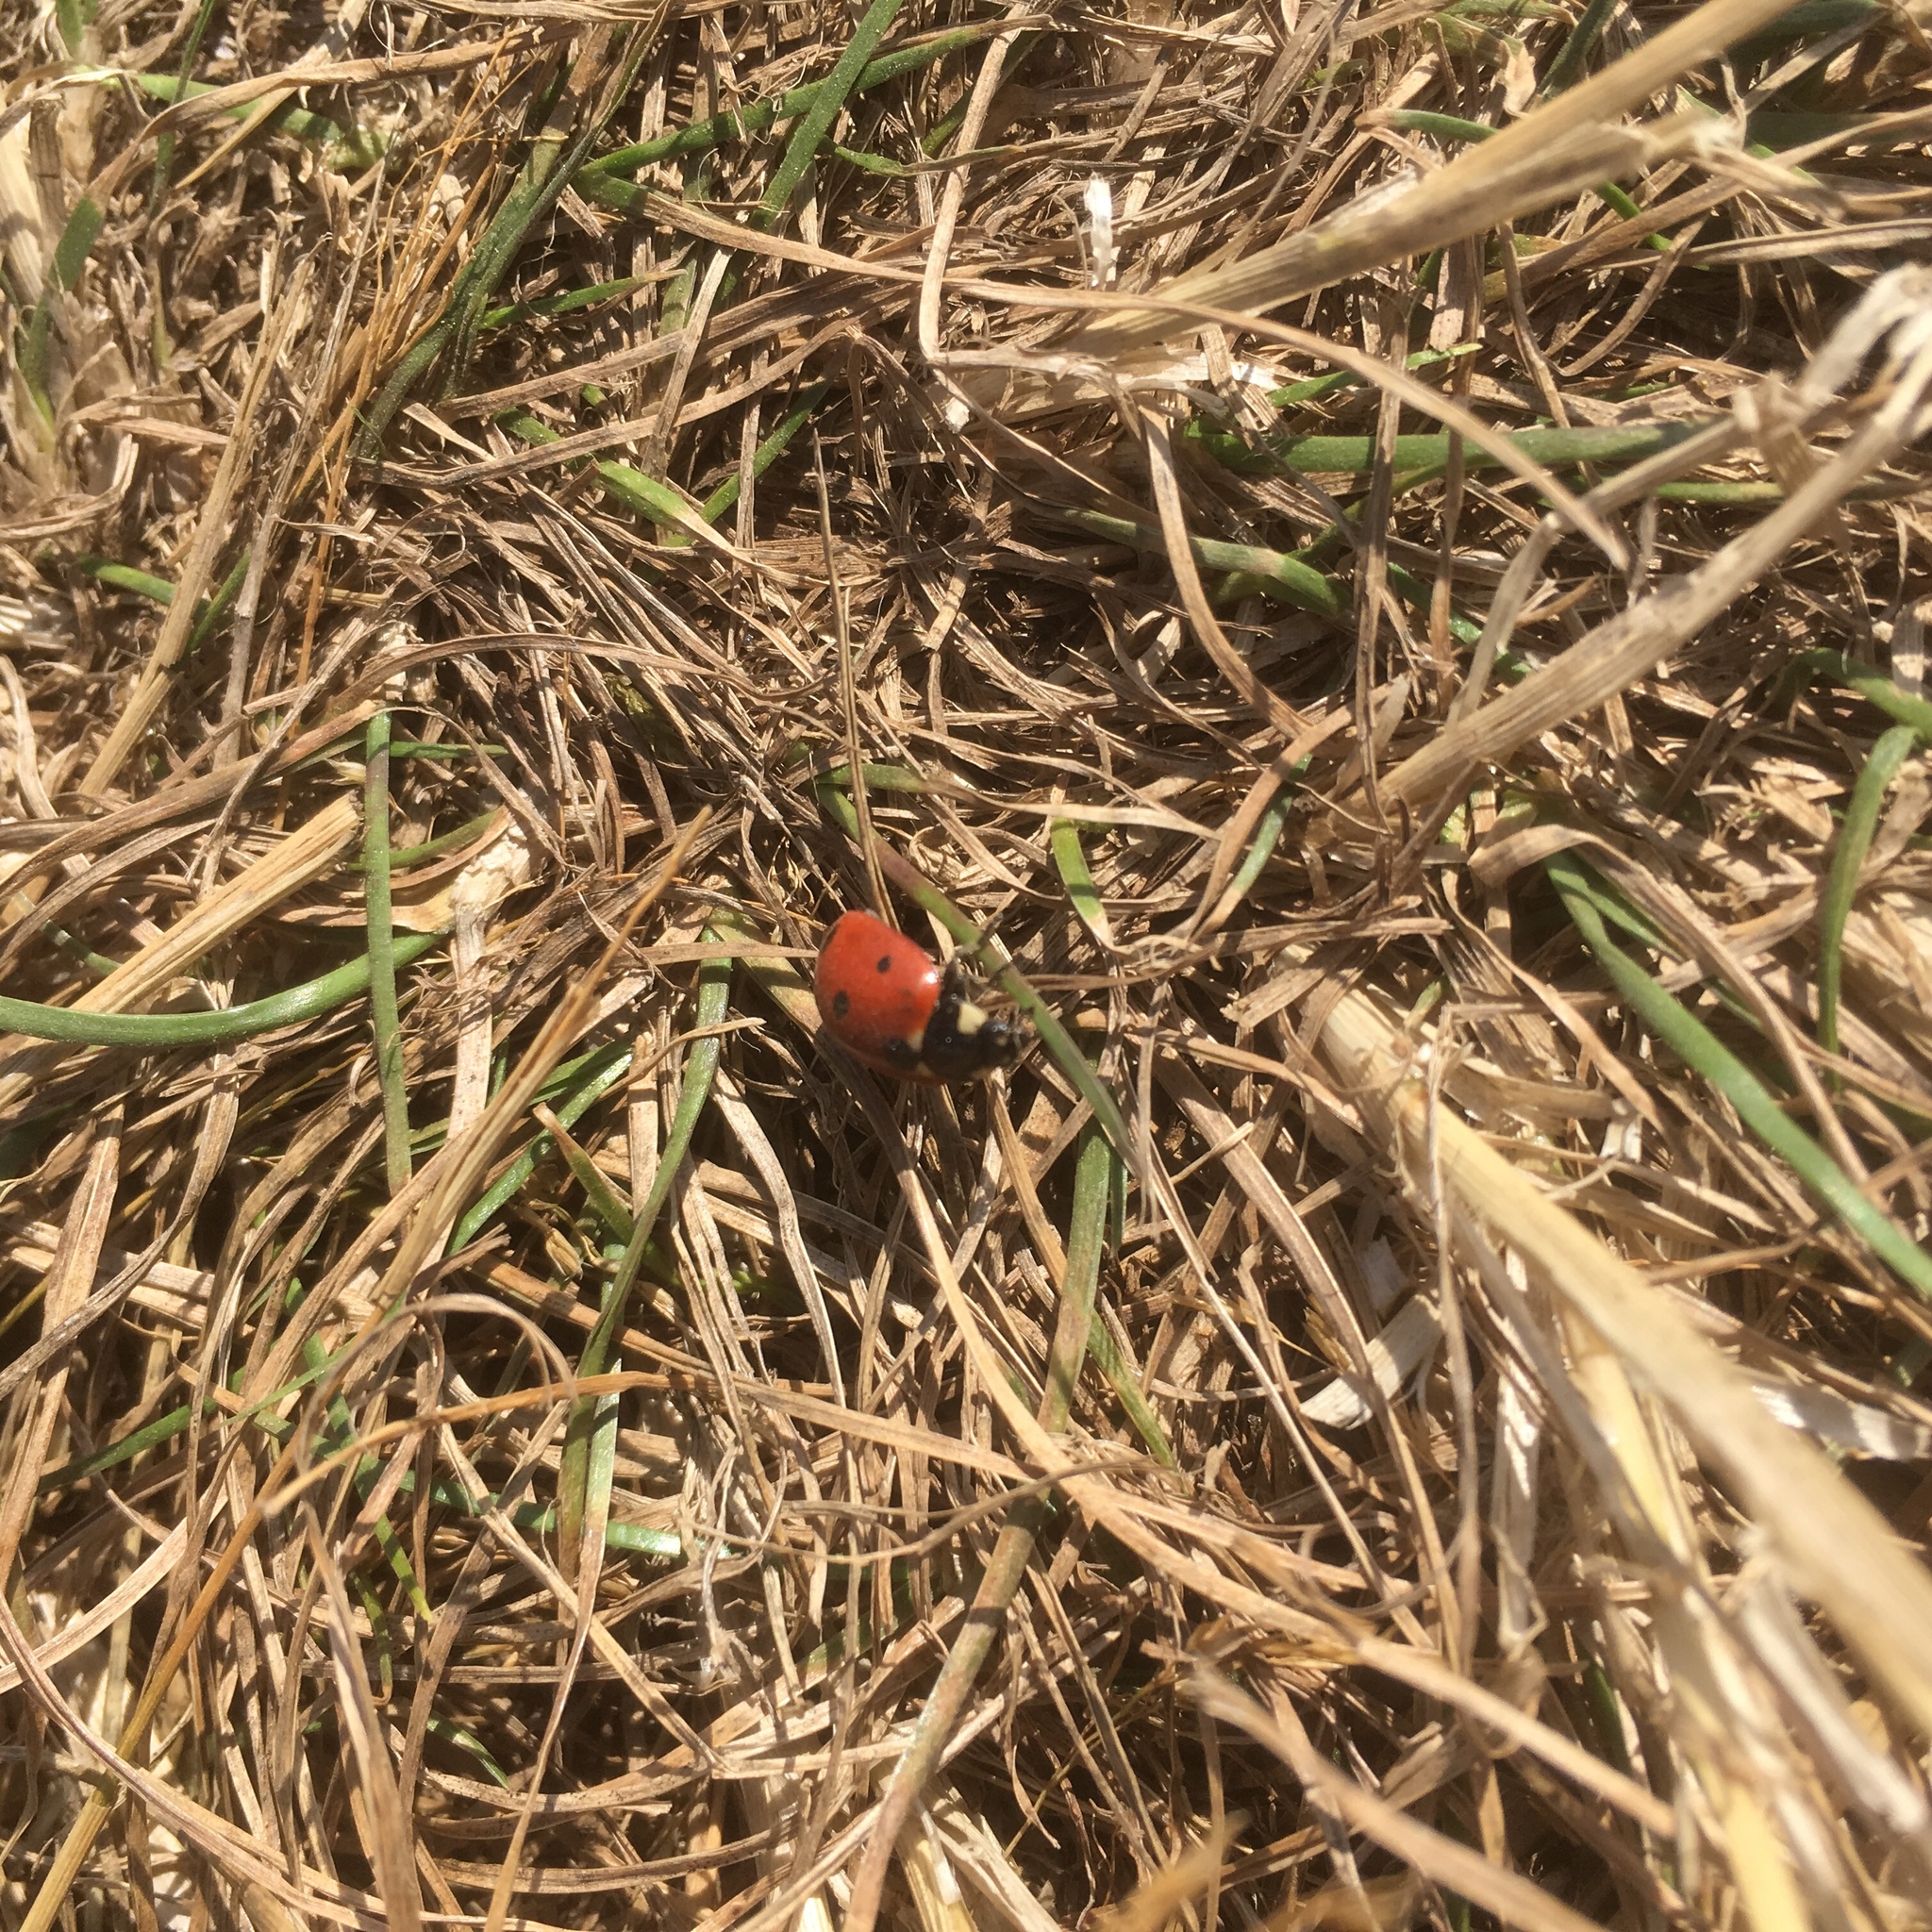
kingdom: Animalia
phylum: Arthropoda
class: Insecta
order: Coleoptera
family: Coccinellidae
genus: Coccinella
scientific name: Coccinella septempunctata
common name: Sevenspotted lady beetle
